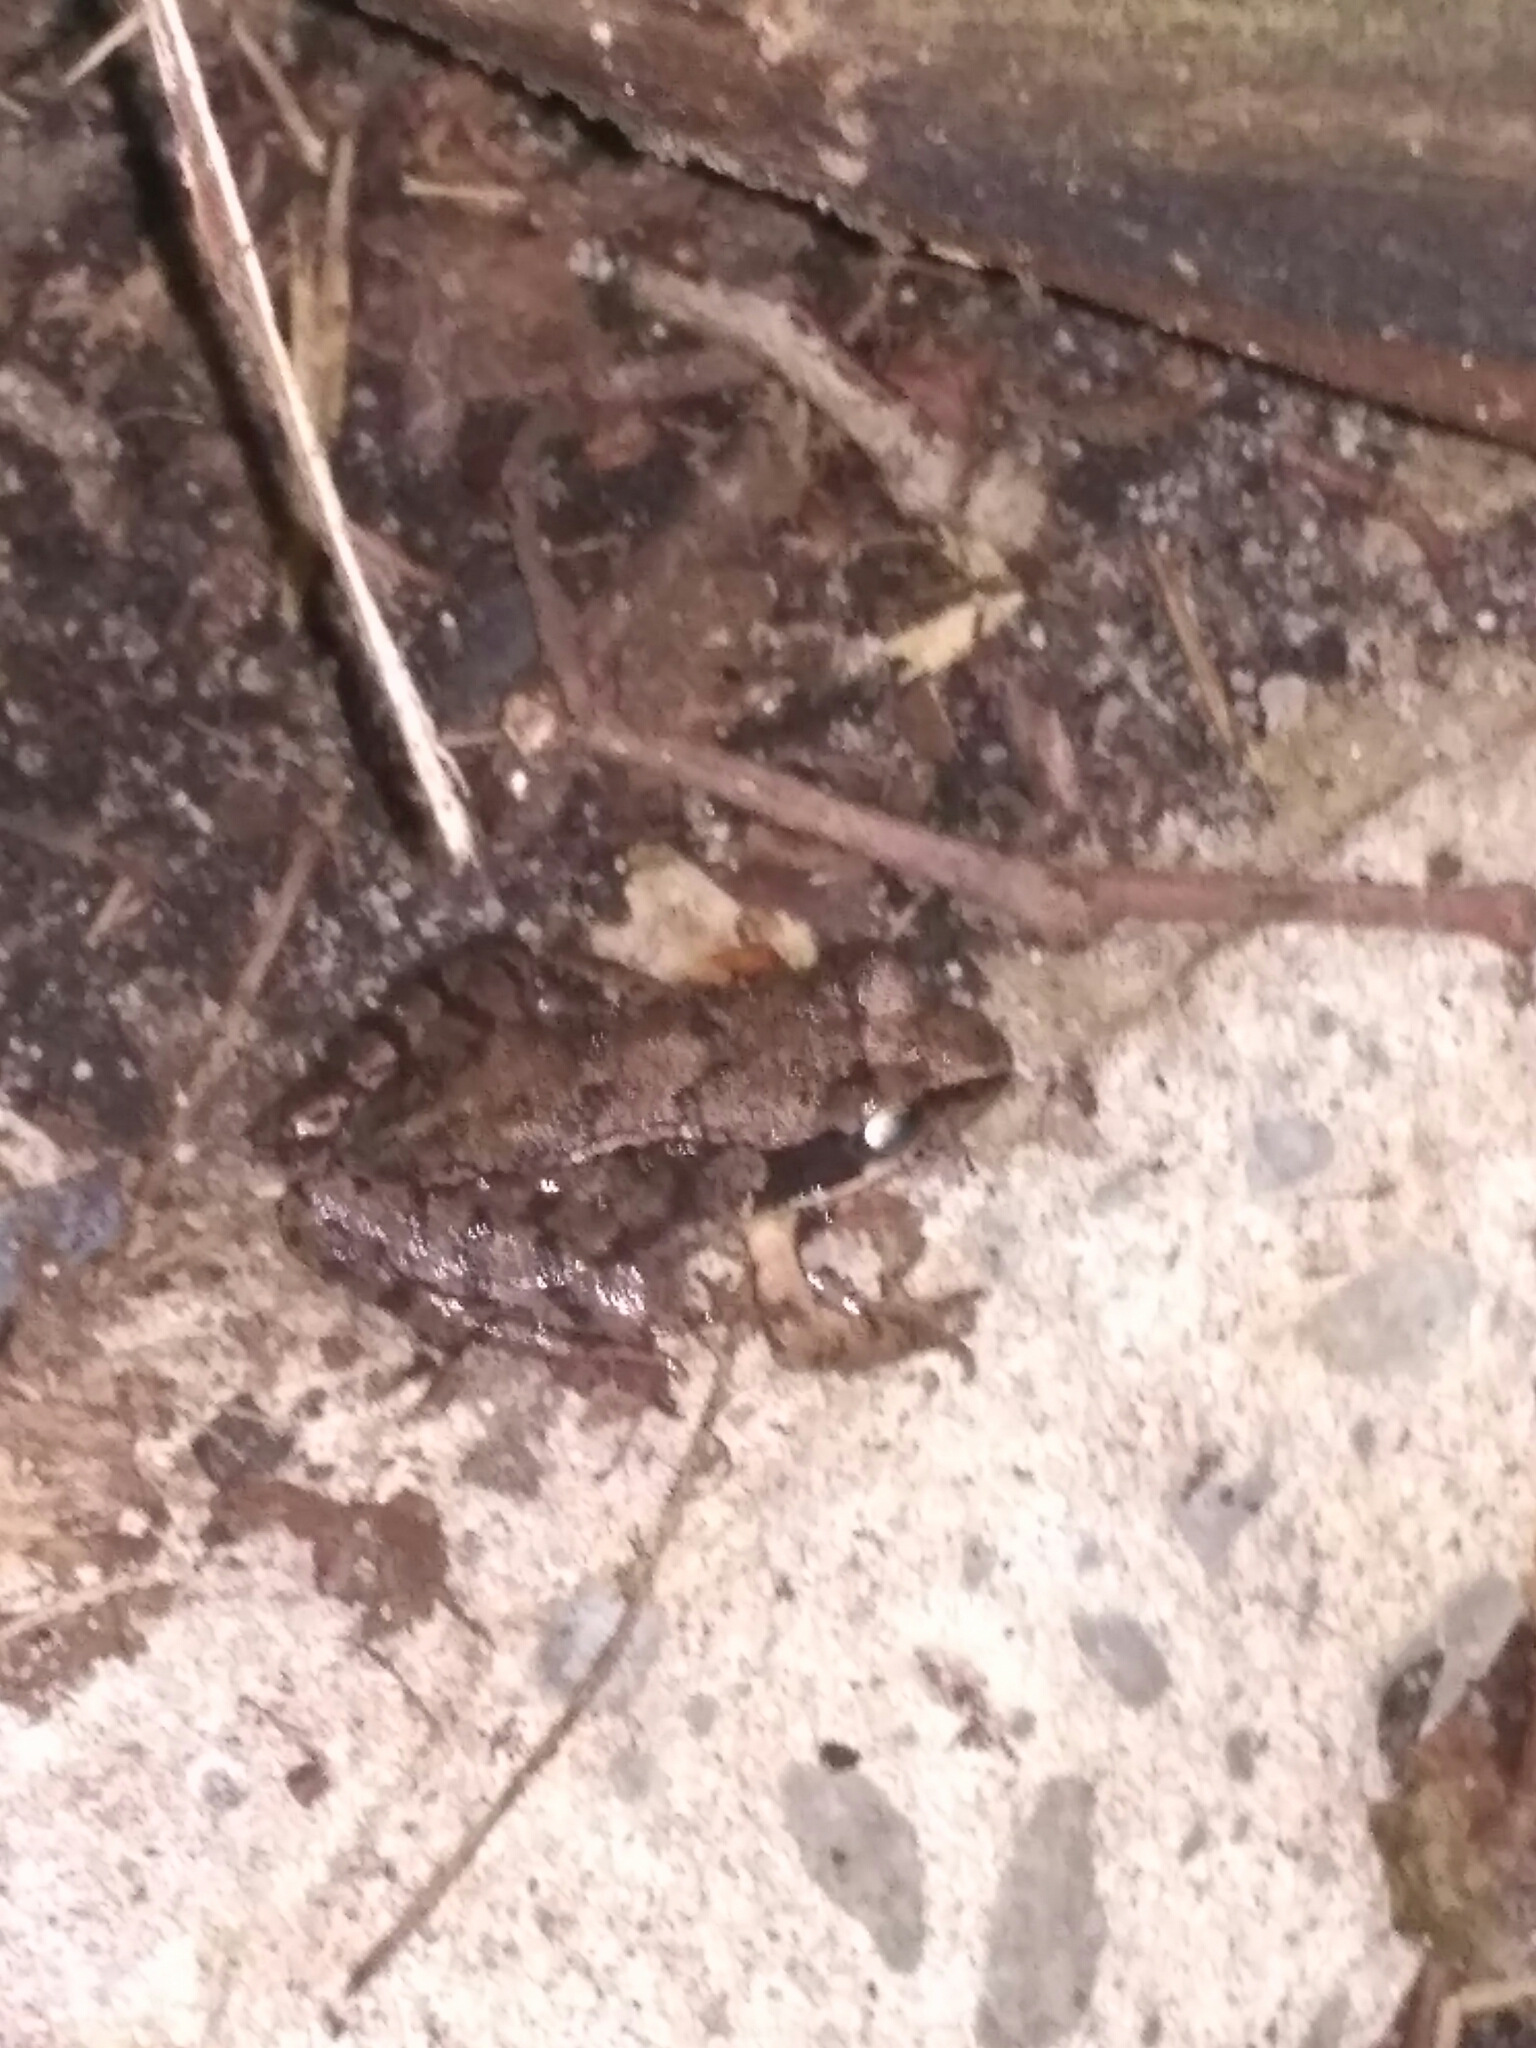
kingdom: Animalia
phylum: Chordata
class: Amphibia
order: Anura
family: Ranidae
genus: Rana
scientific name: Rana temporaria
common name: Common frog
